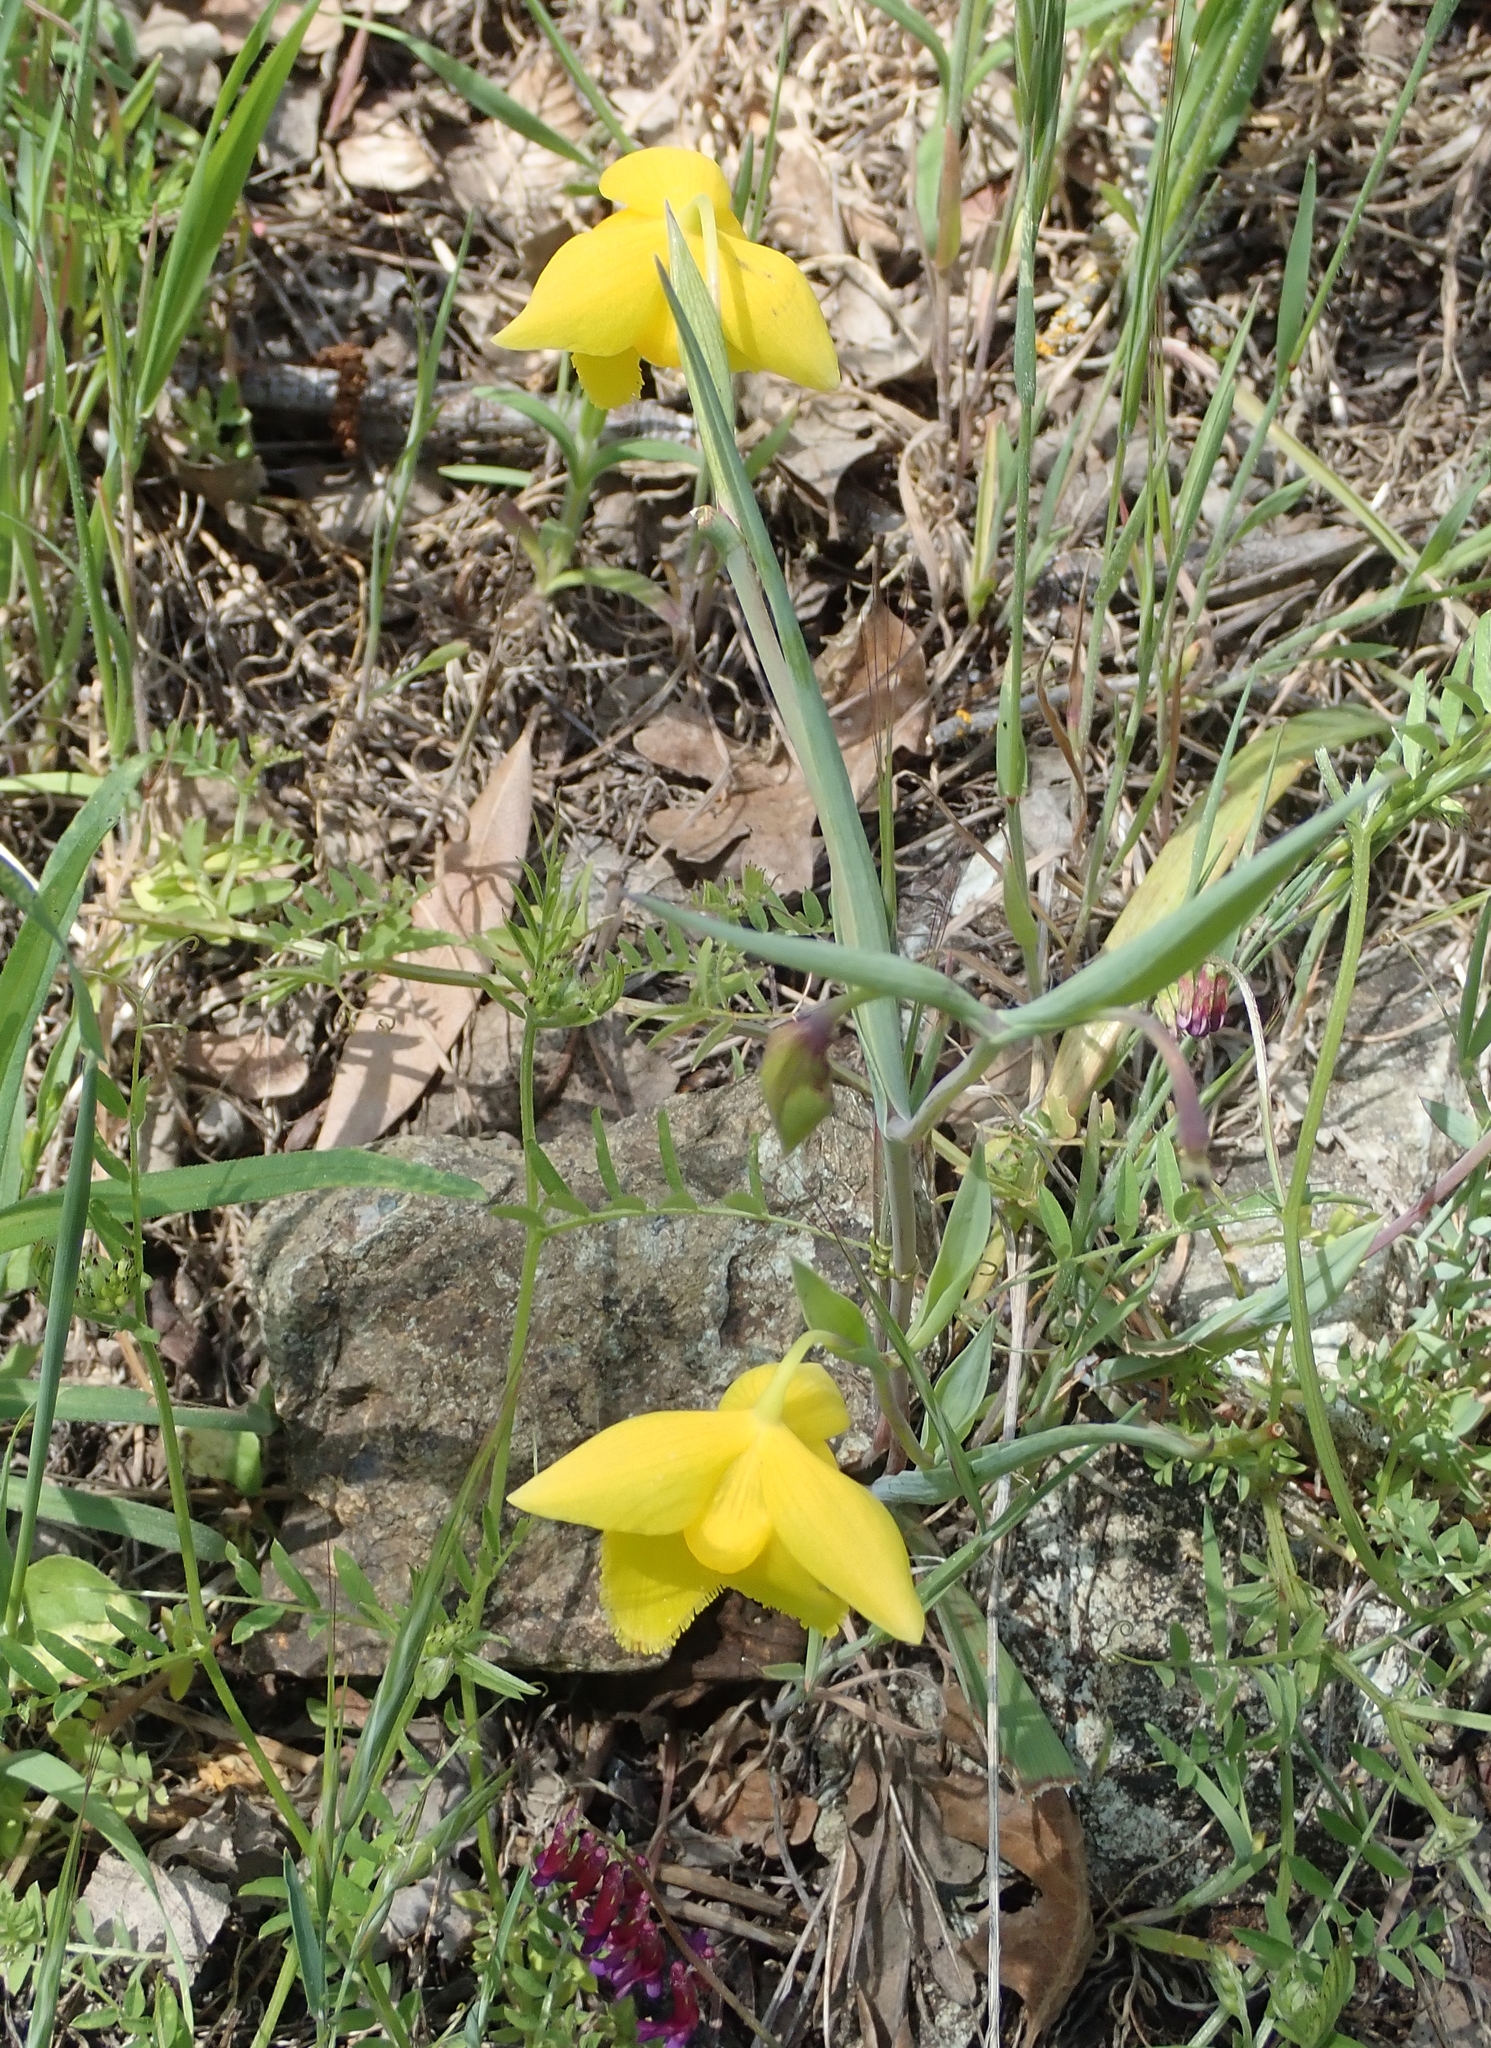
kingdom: Plantae
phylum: Tracheophyta
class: Liliopsida
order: Liliales
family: Liliaceae
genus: Calochortus
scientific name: Calochortus amabilis
